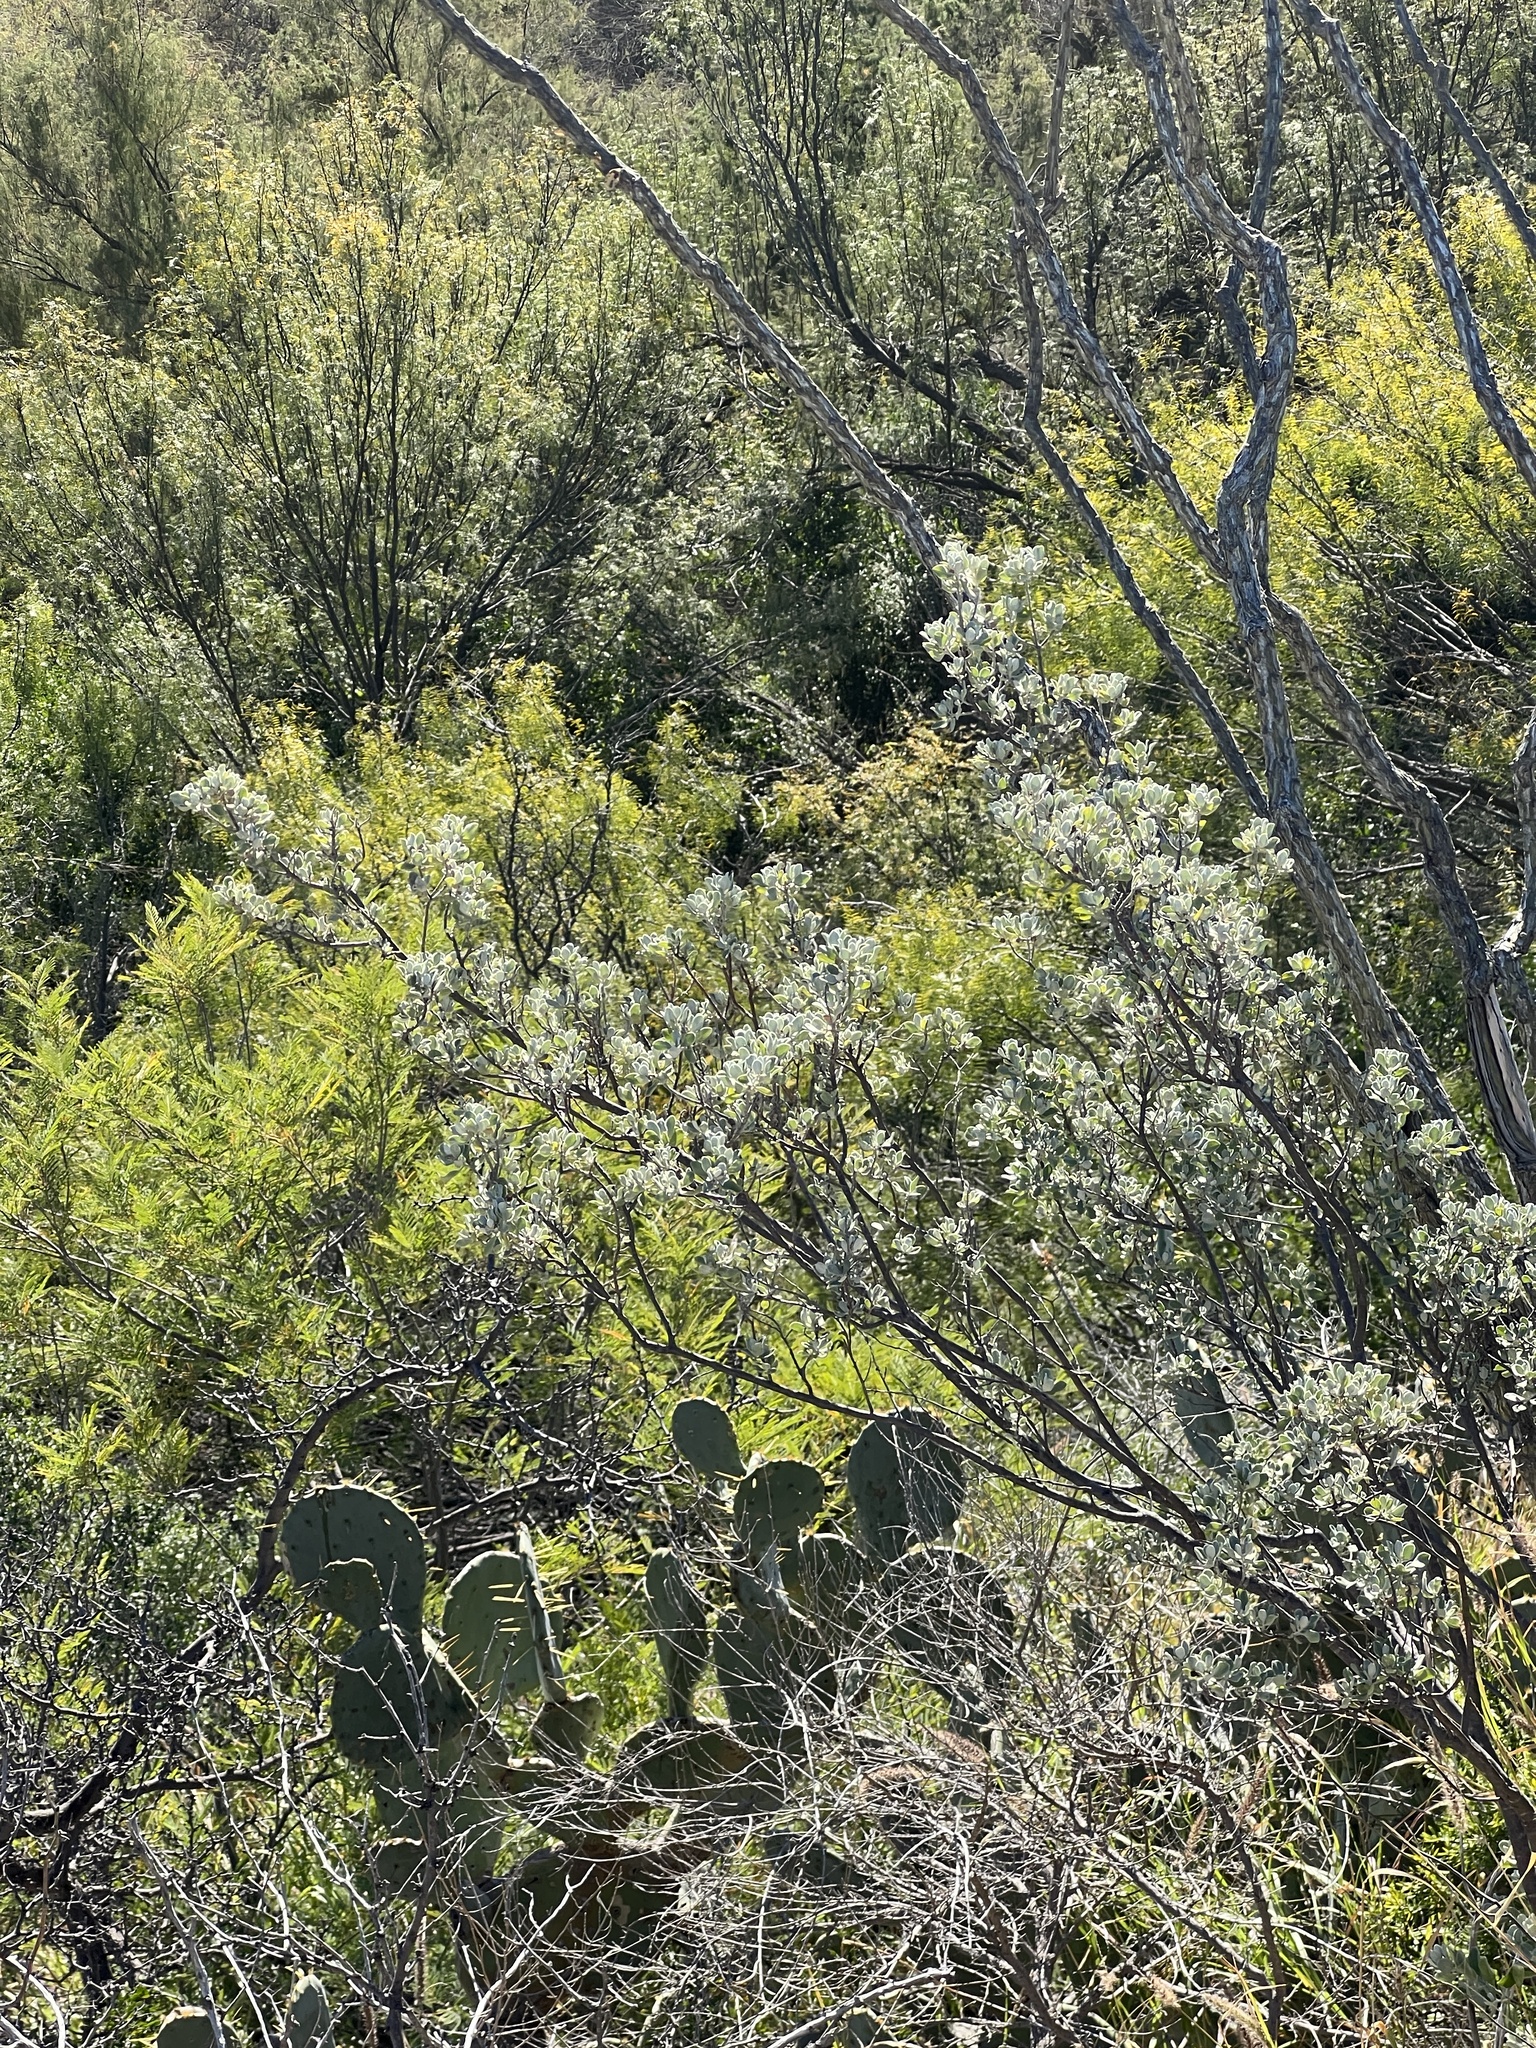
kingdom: Plantae
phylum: Tracheophyta
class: Magnoliopsida
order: Lamiales
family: Scrophulariaceae
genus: Leucophyllum
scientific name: Leucophyllum frutescens
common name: Texas silverleaf
